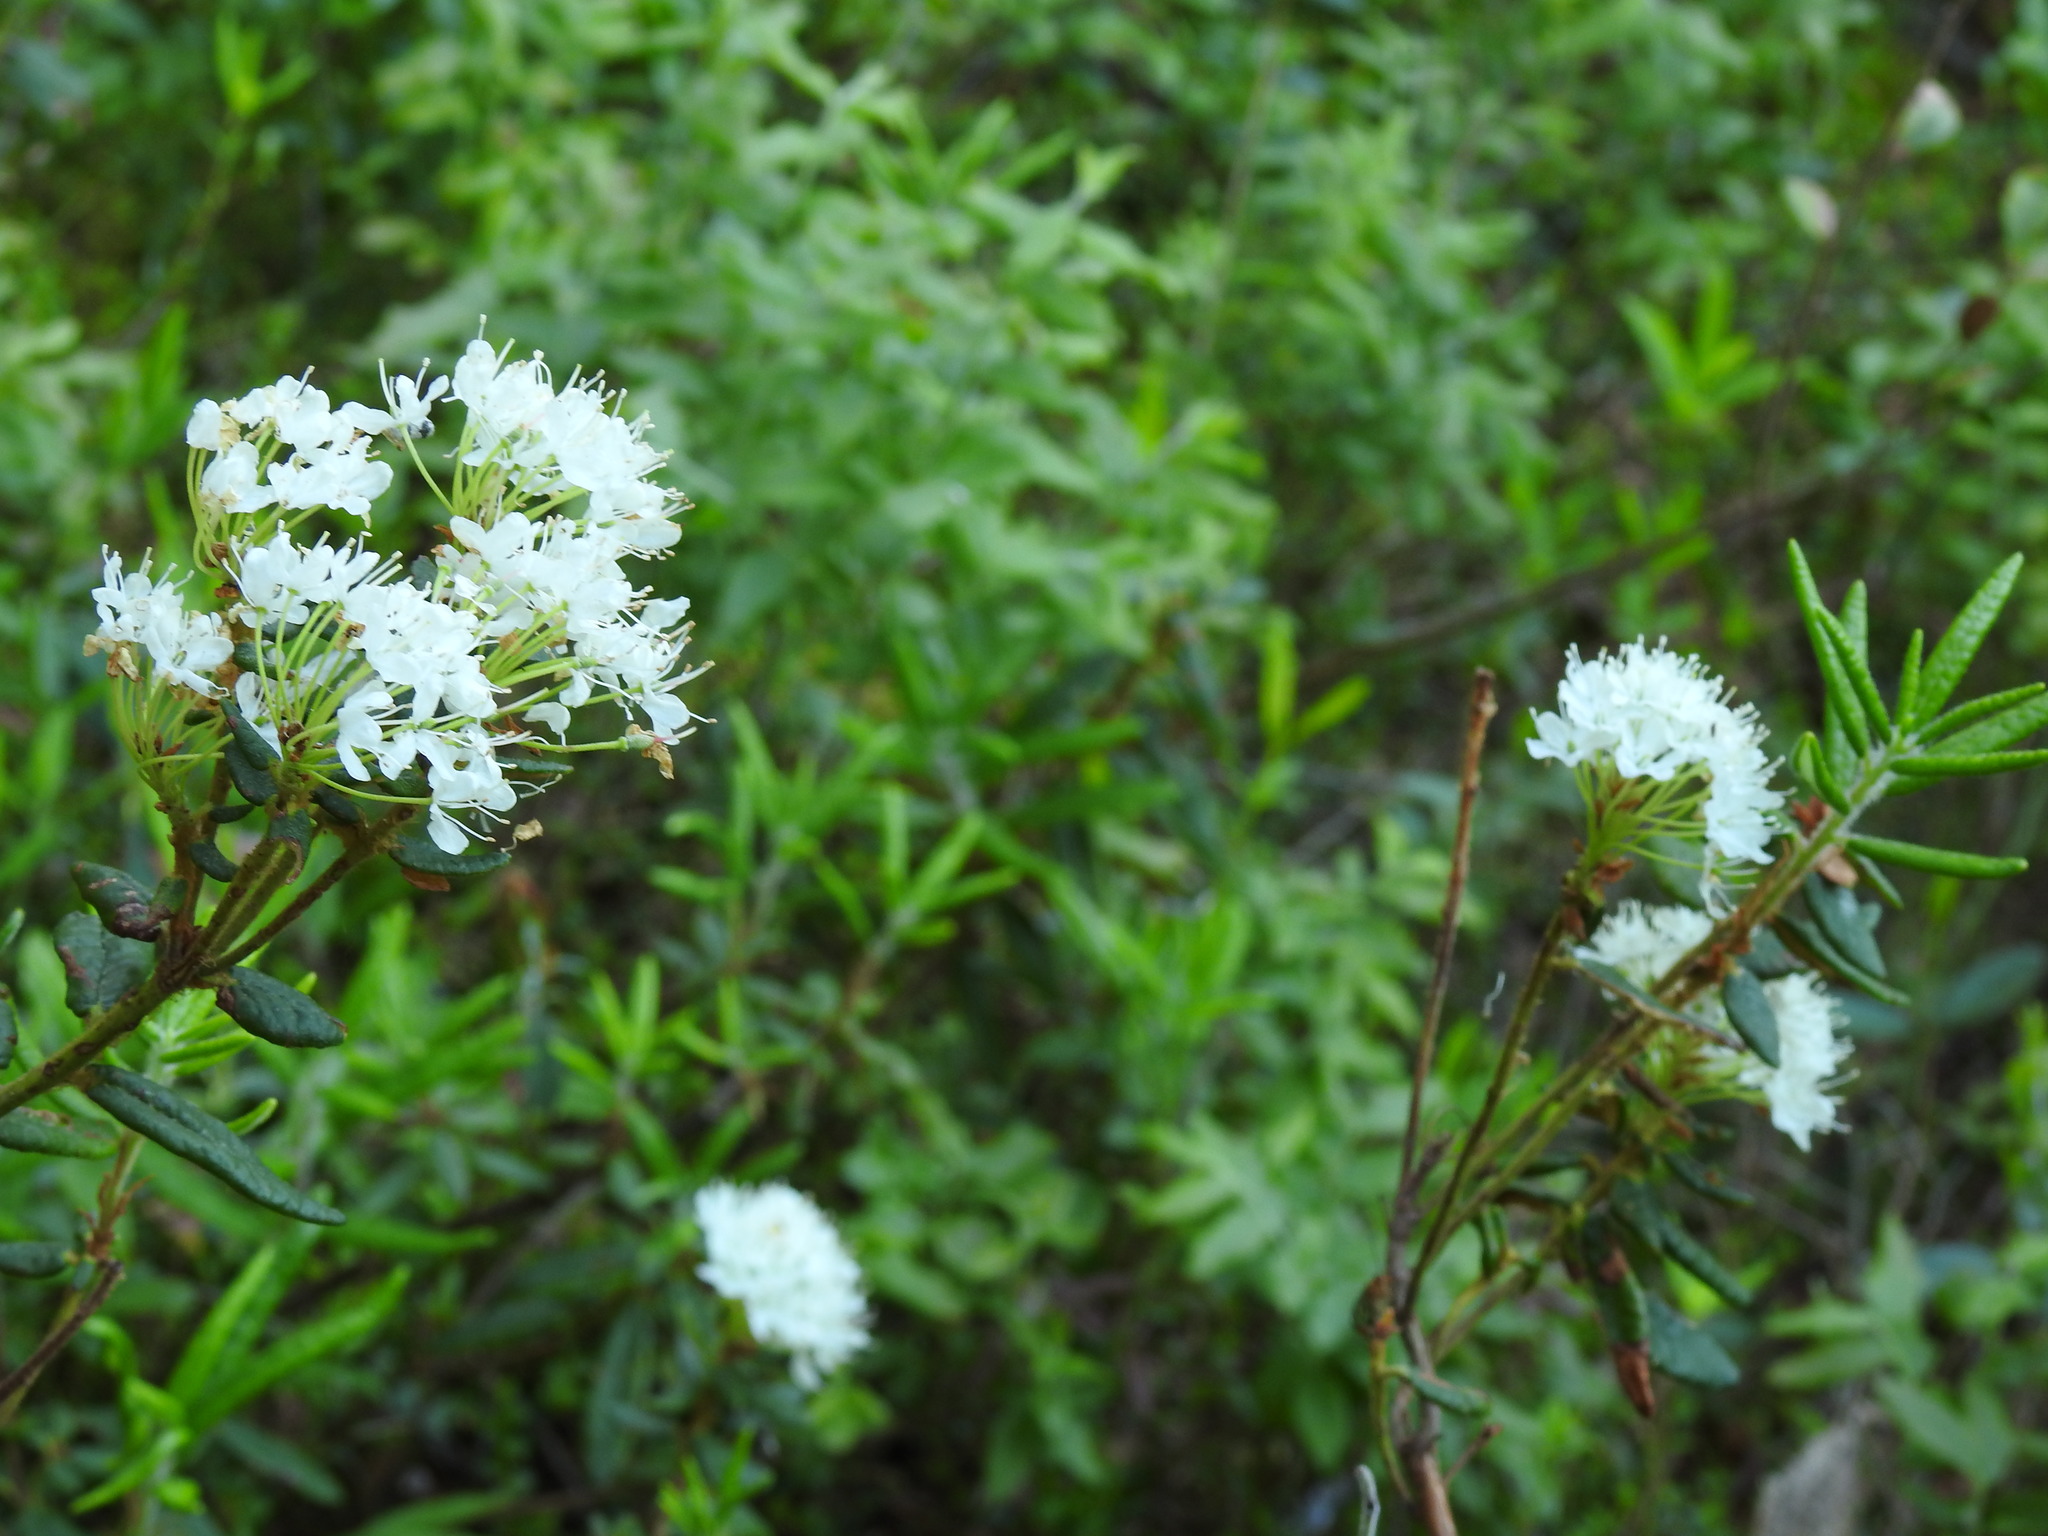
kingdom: Plantae
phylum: Tracheophyta
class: Magnoliopsida
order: Ericales
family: Ericaceae
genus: Rhododendron
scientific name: Rhododendron groenlandicum
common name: Bog labrador tea
